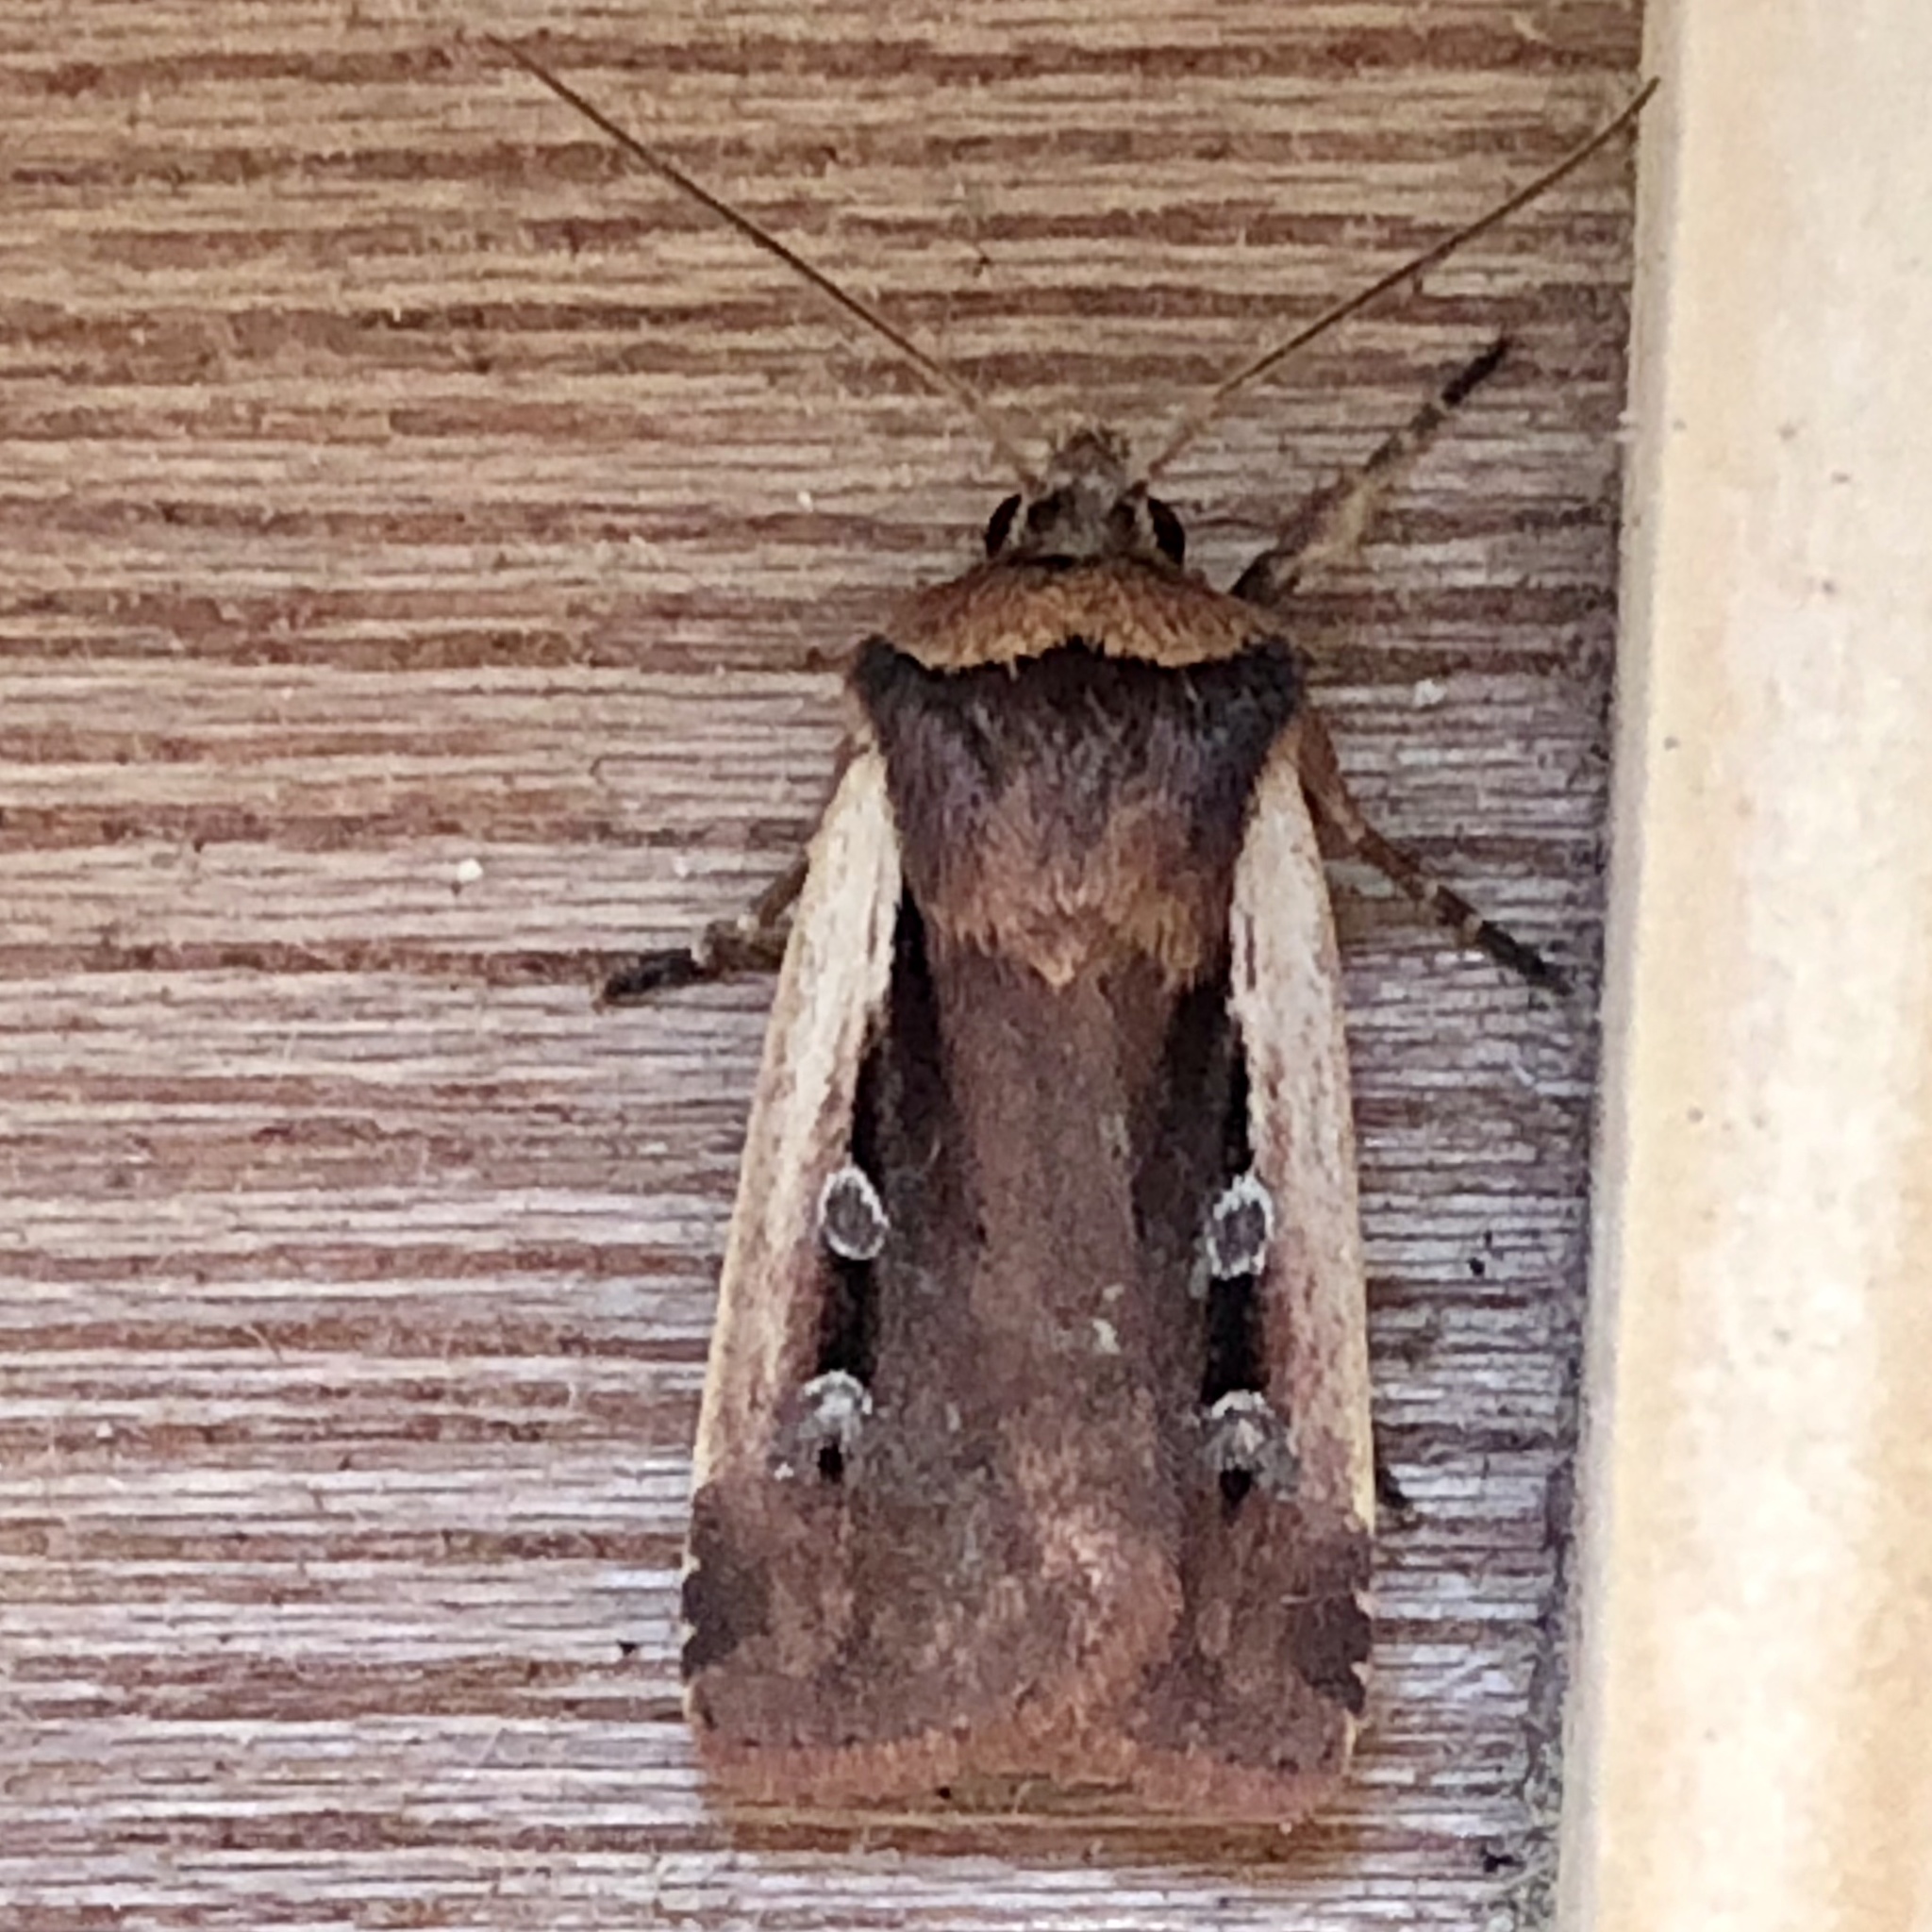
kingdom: Animalia
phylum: Arthropoda
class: Insecta
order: Lepidoptera
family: Noctuidae
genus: Ochropleura
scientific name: Ochropleura plecta
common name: Flame shoulder
